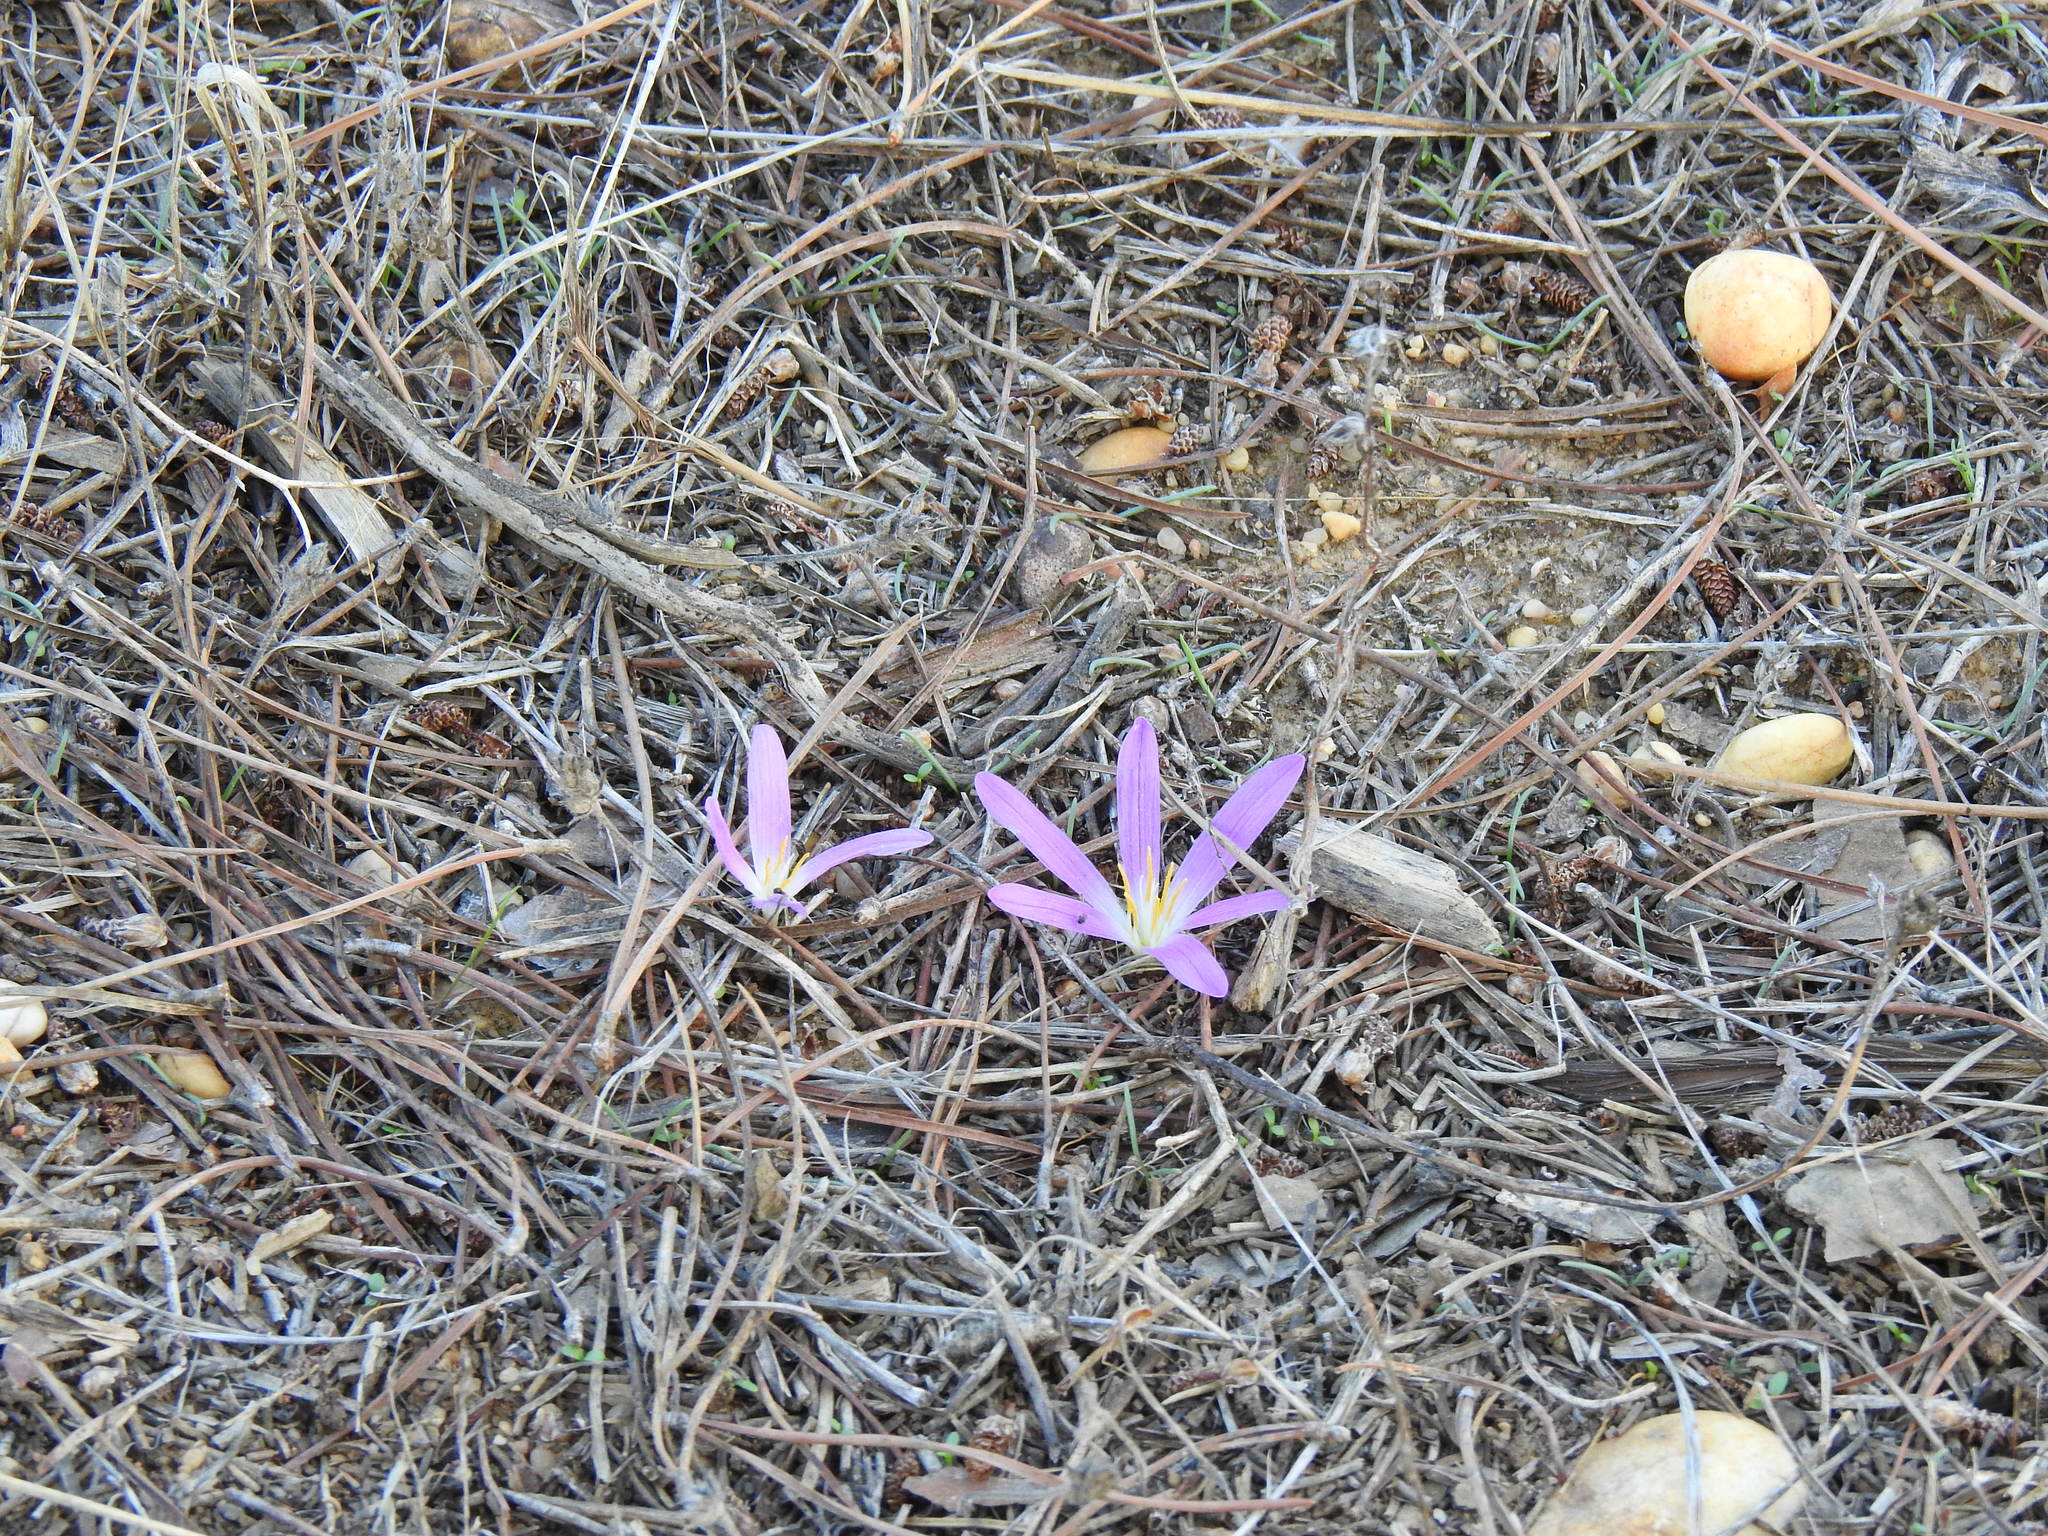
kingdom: Plantae
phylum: Tracheophyta
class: Liliopsida
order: Liliales
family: Colchicaceae
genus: Colchicum
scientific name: Colchicum filifolium
